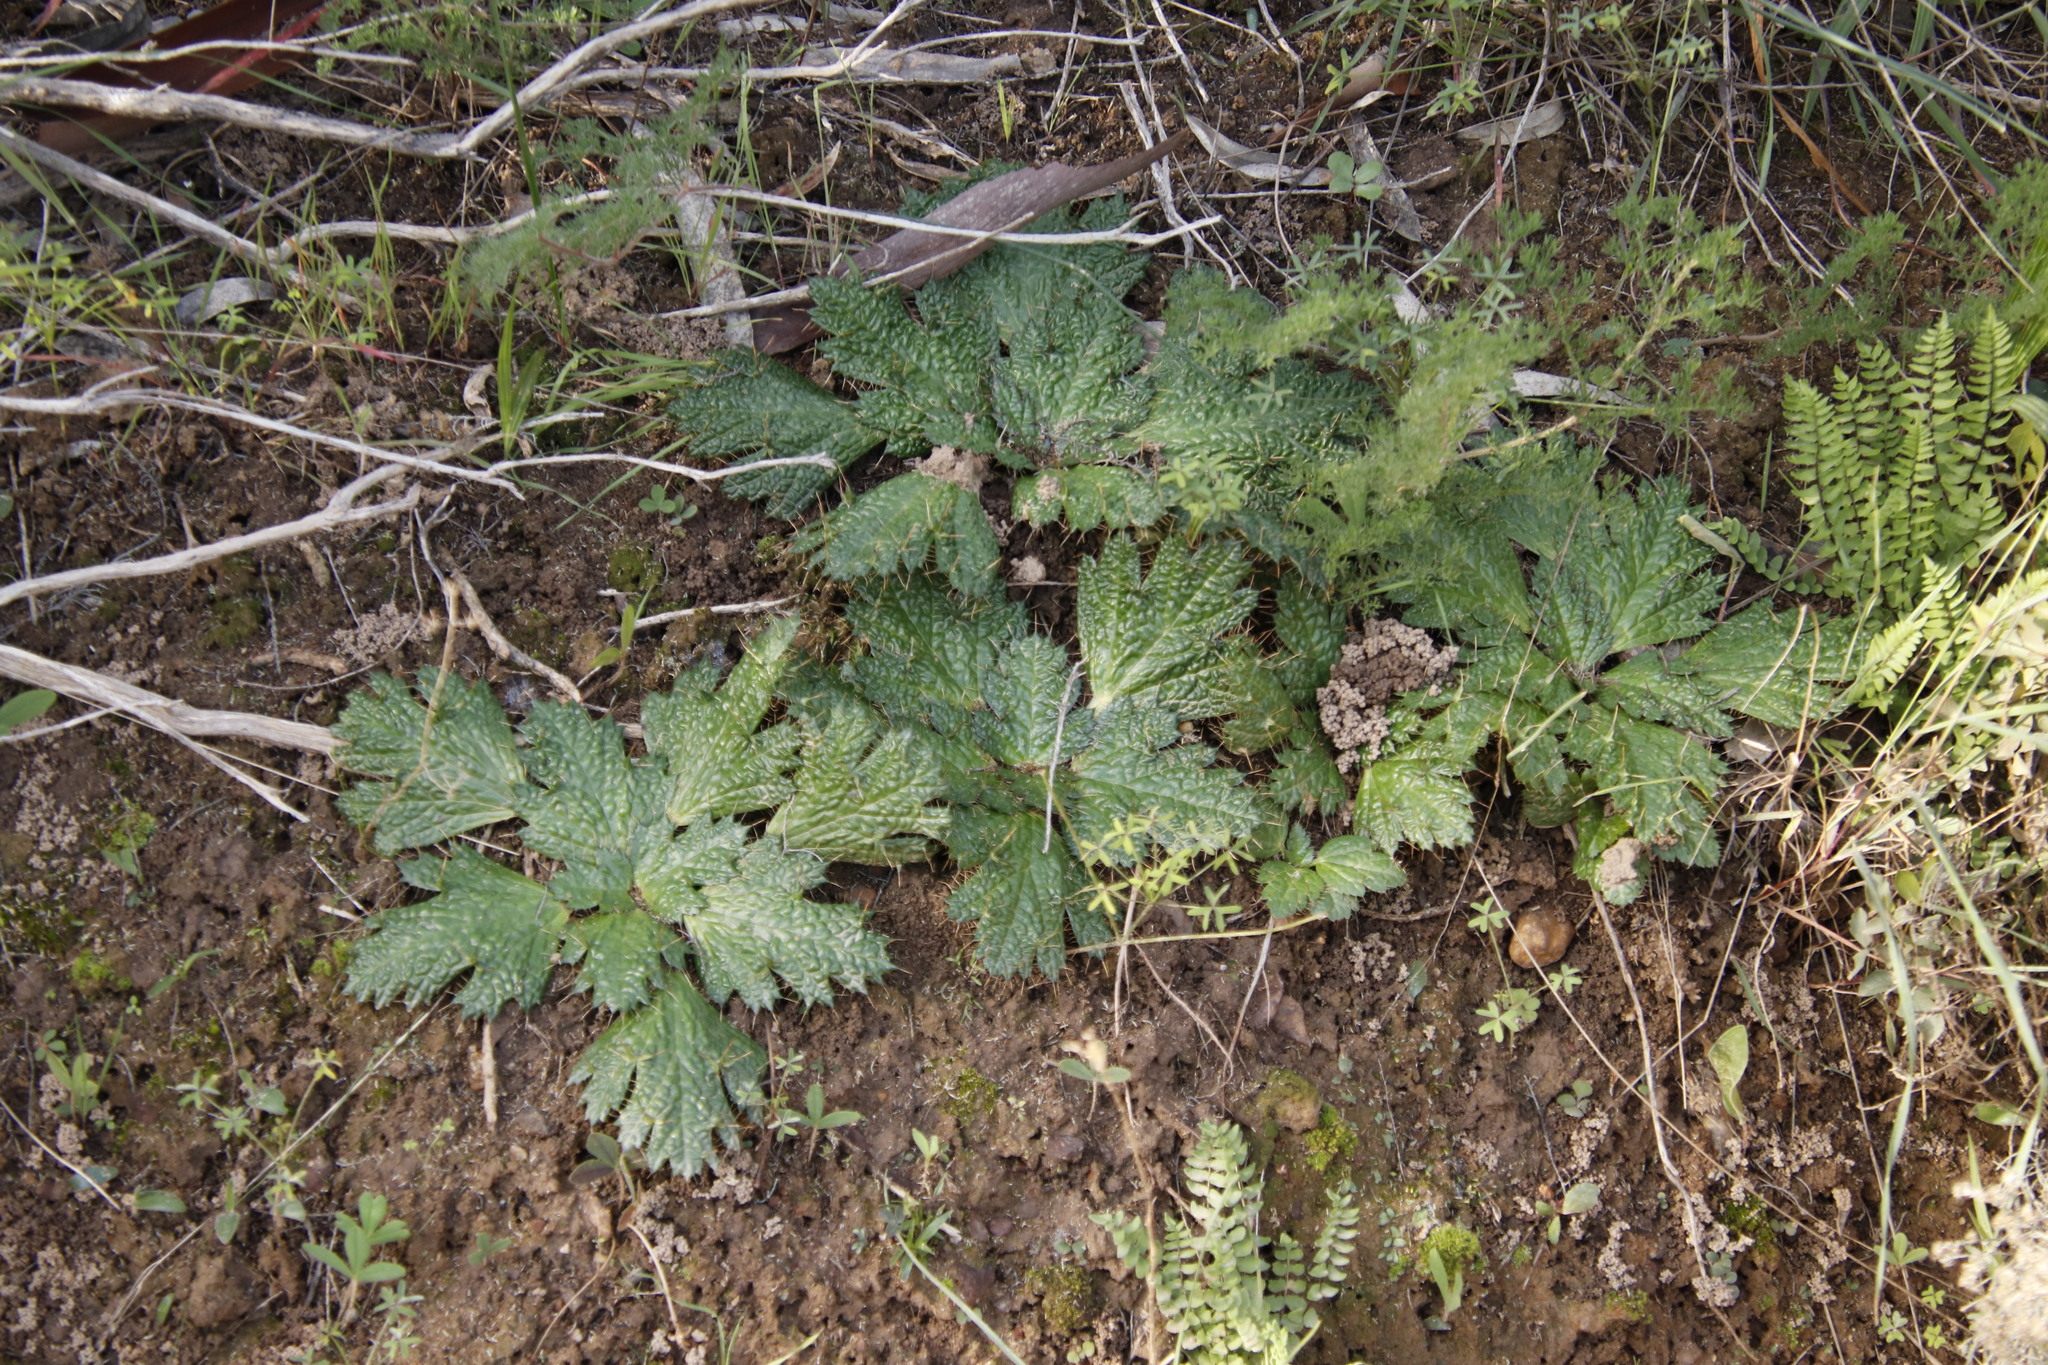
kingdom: Plantae
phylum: Tracheophyta
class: Magnoliopsida
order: Apiales
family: Apiaceae
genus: Arctopus
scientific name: Arctopus echinatus
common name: Platdoring
